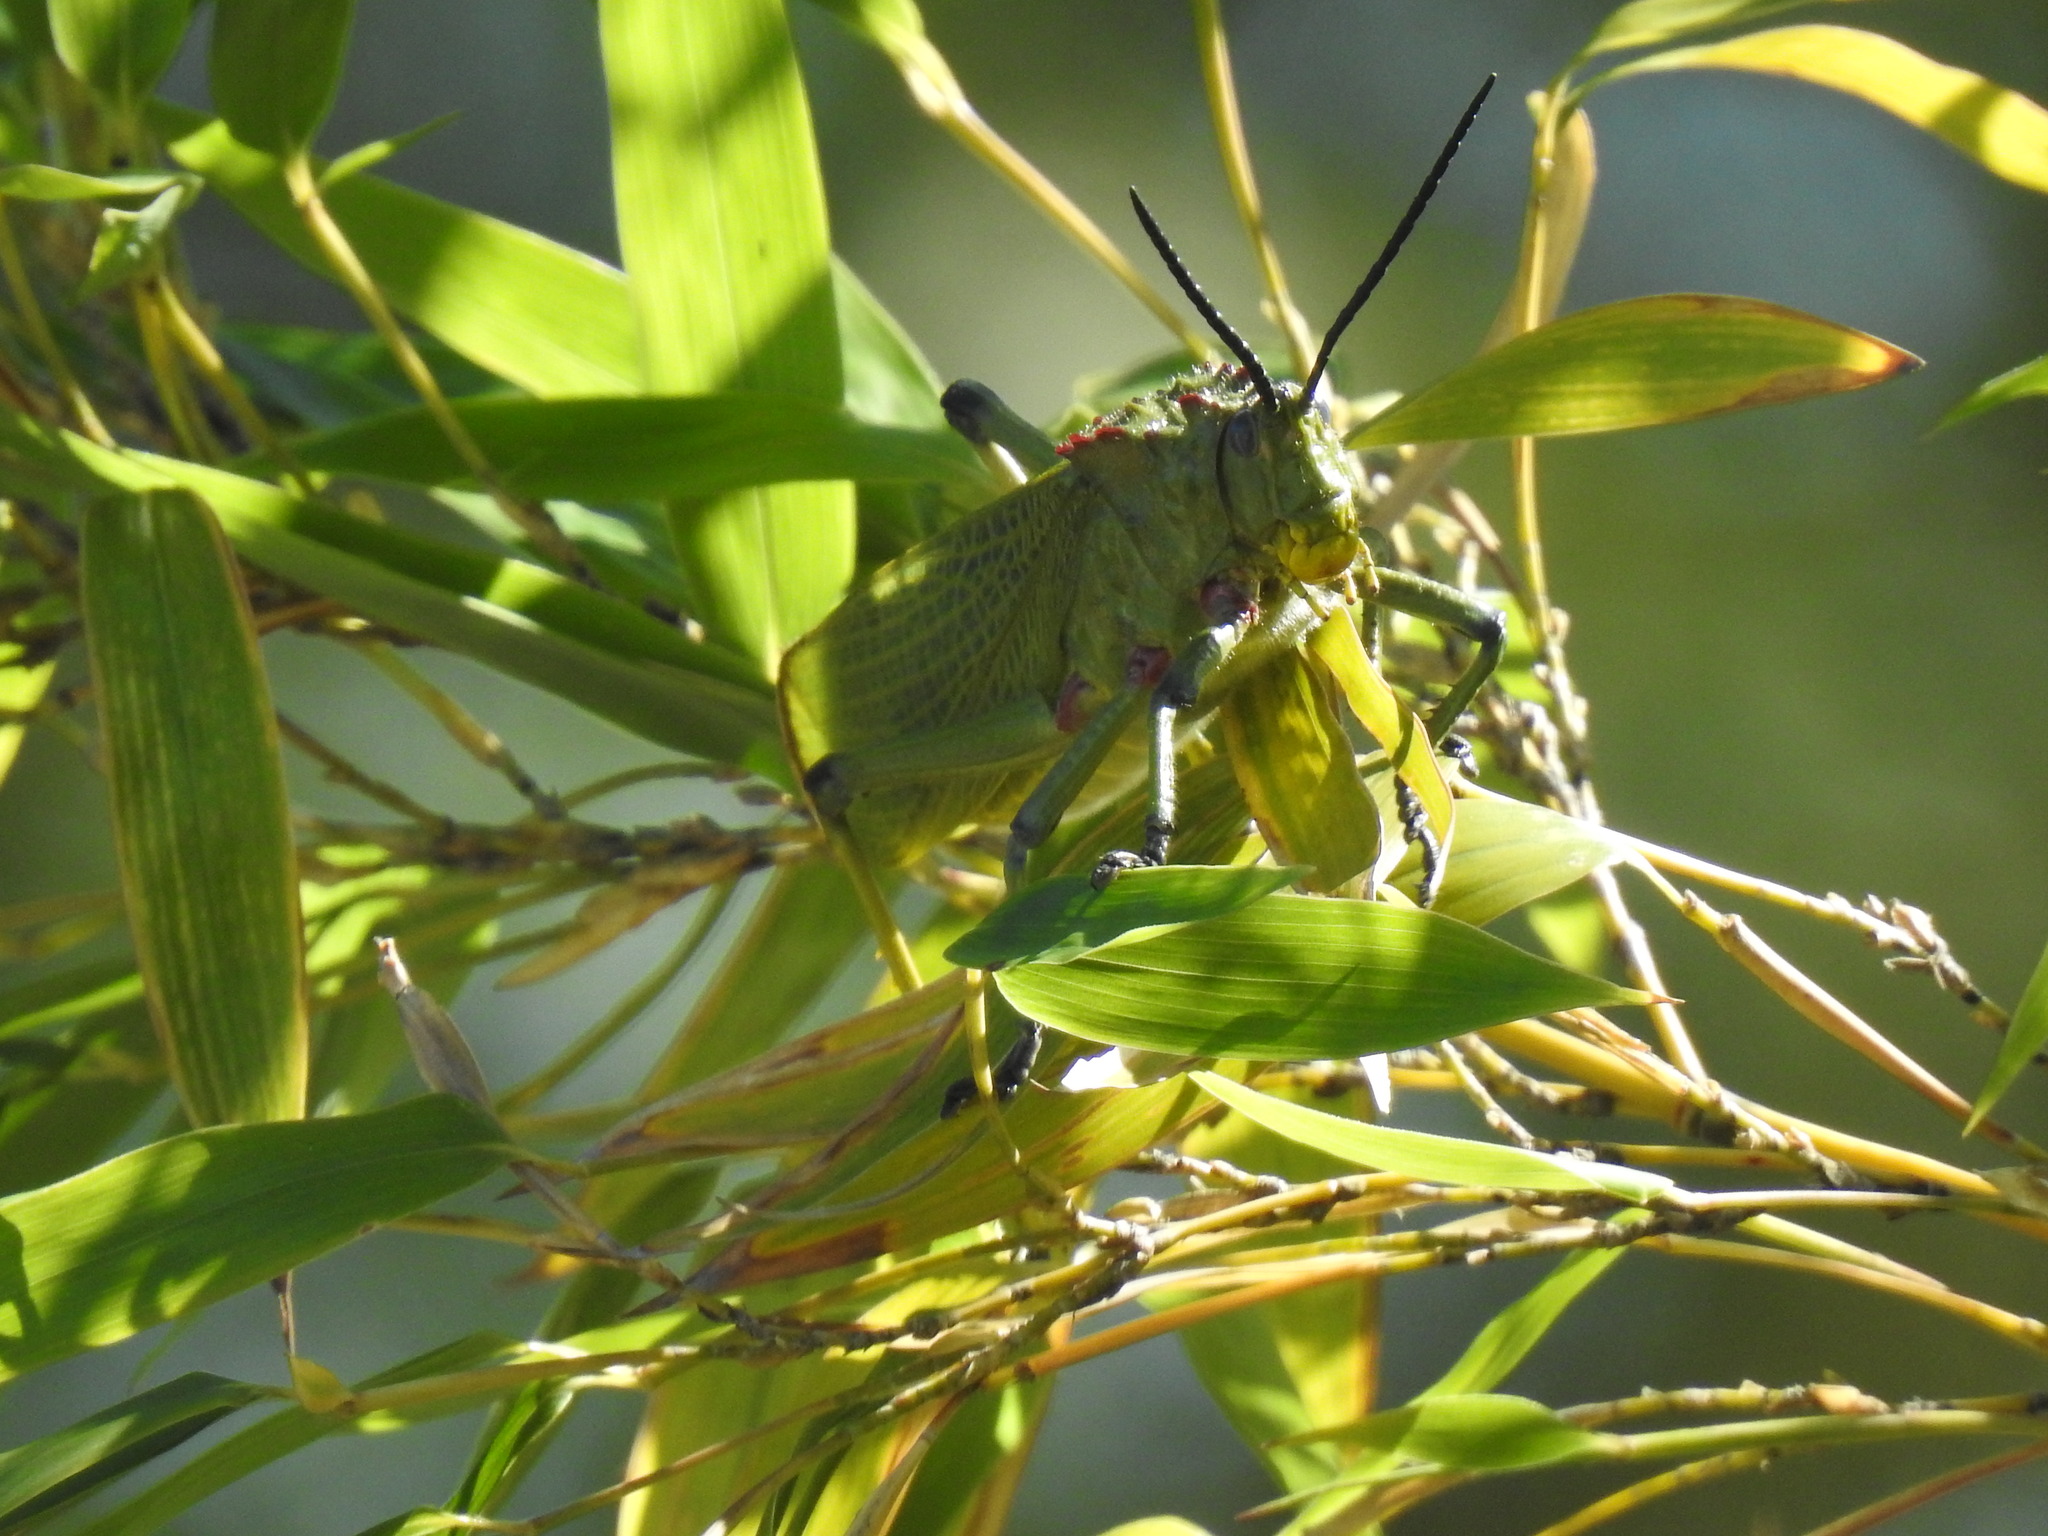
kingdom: Animalia
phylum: Arthropoda
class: Insecta
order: Orthoptera
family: Pyrgomorphidae
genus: Phymateus
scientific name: Phymateus viridipes
